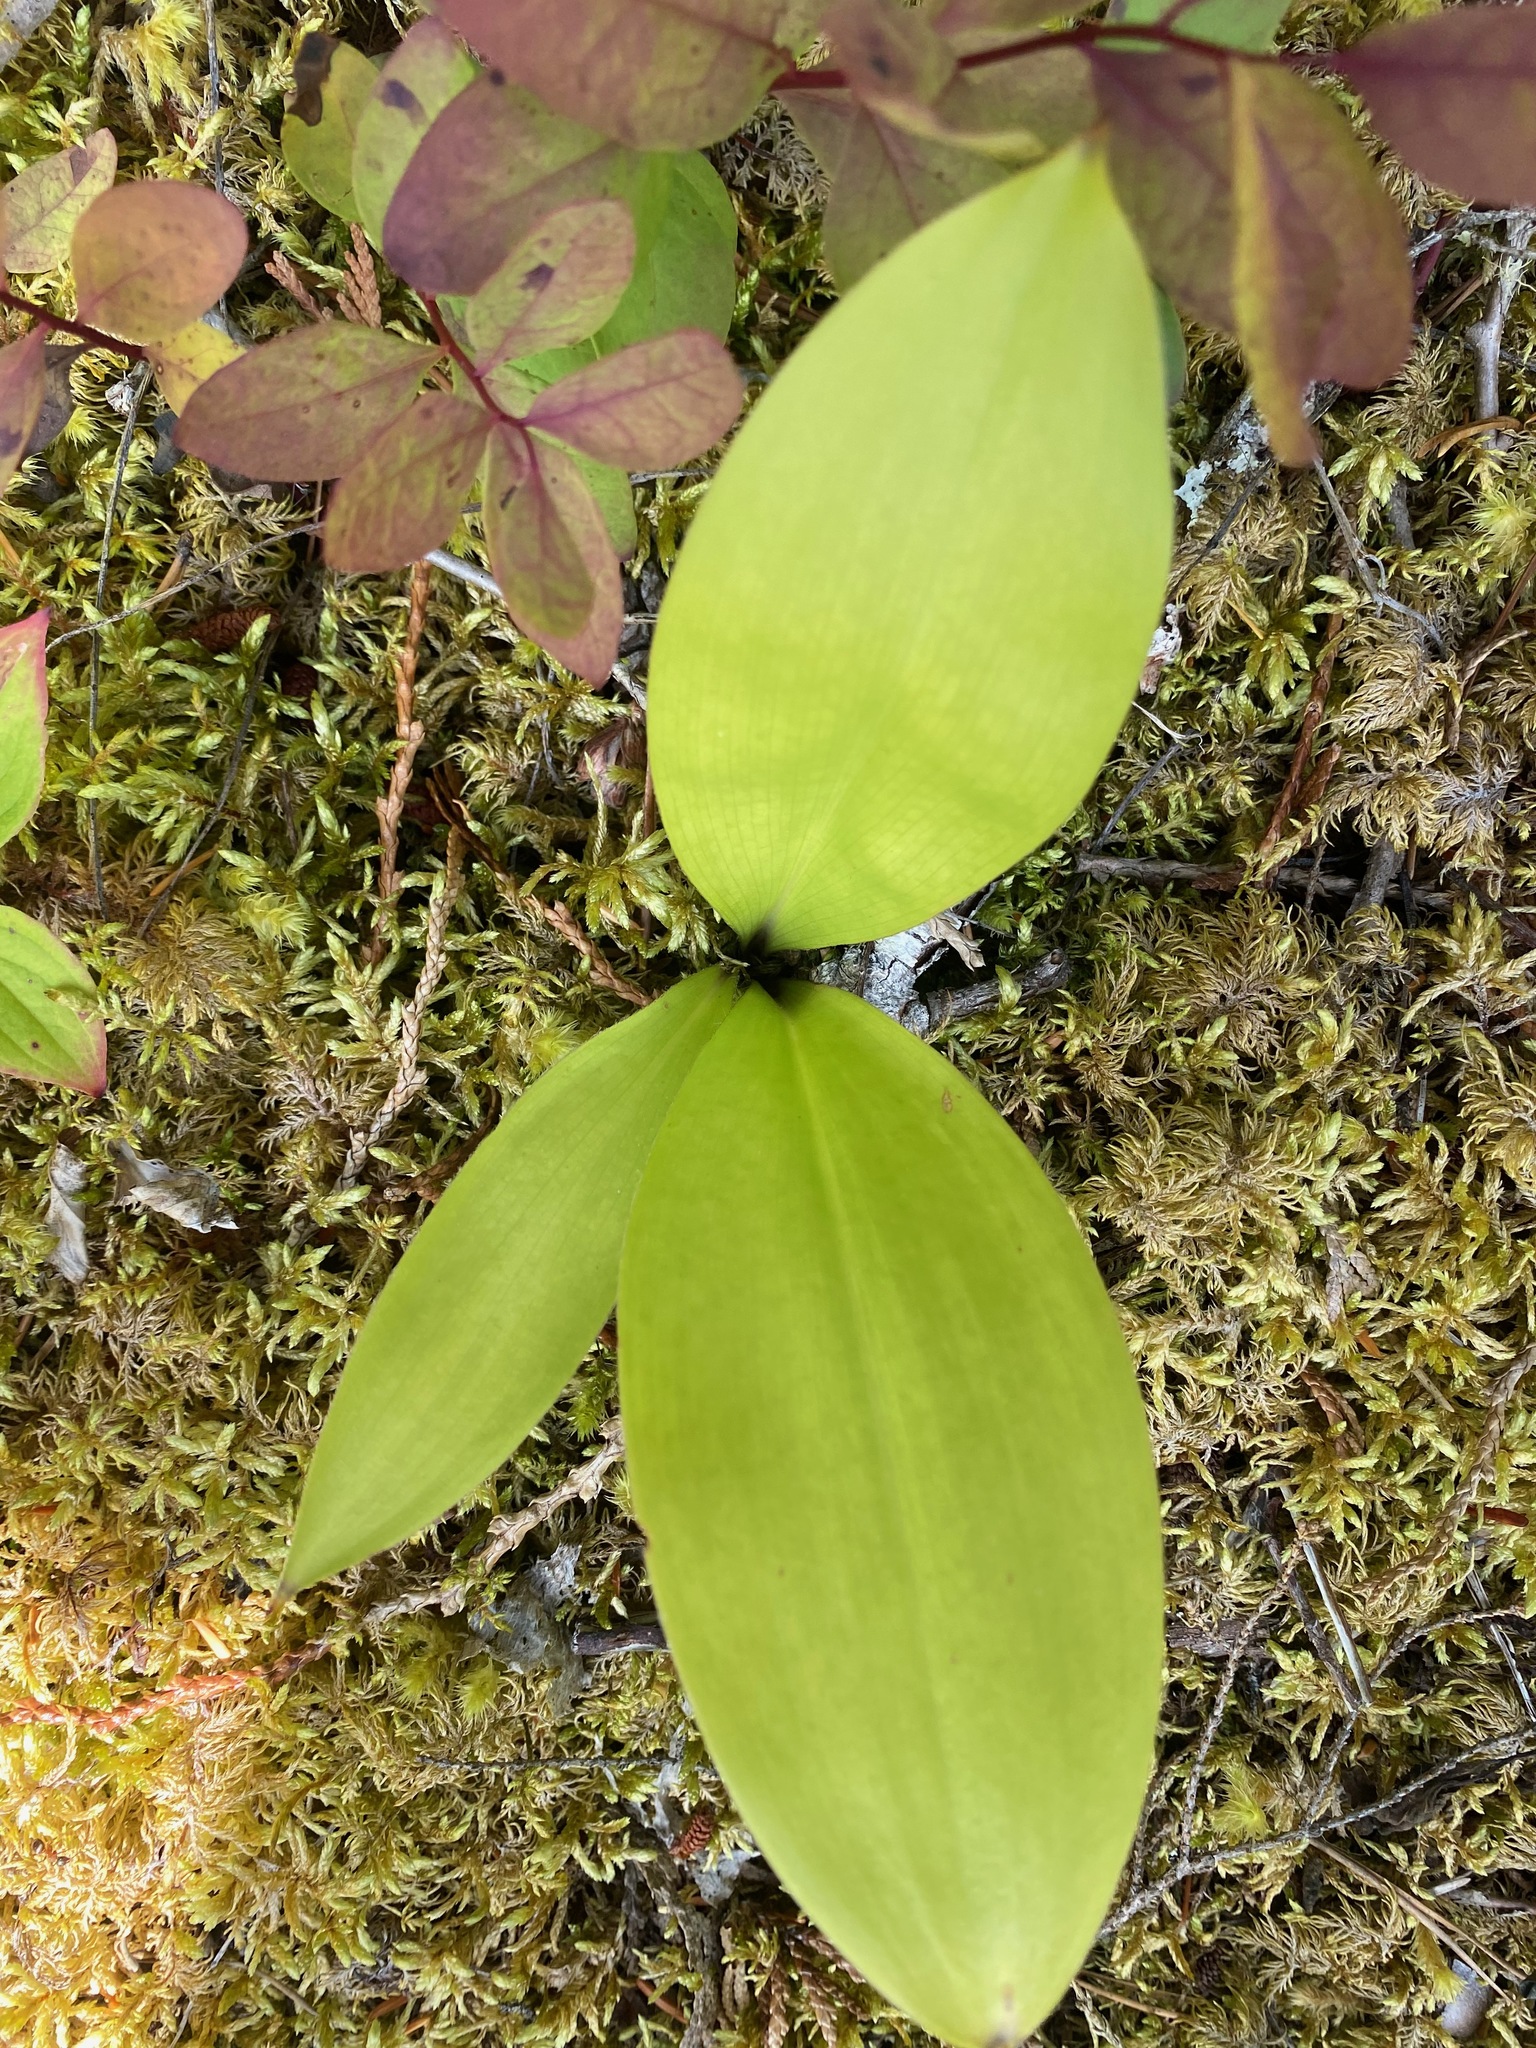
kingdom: Plantae
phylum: Tracheophyta
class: Liliopsida
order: Liliales
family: Liliaceae
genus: Clintonia
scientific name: Clintonia uniflora
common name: Queen's cup
